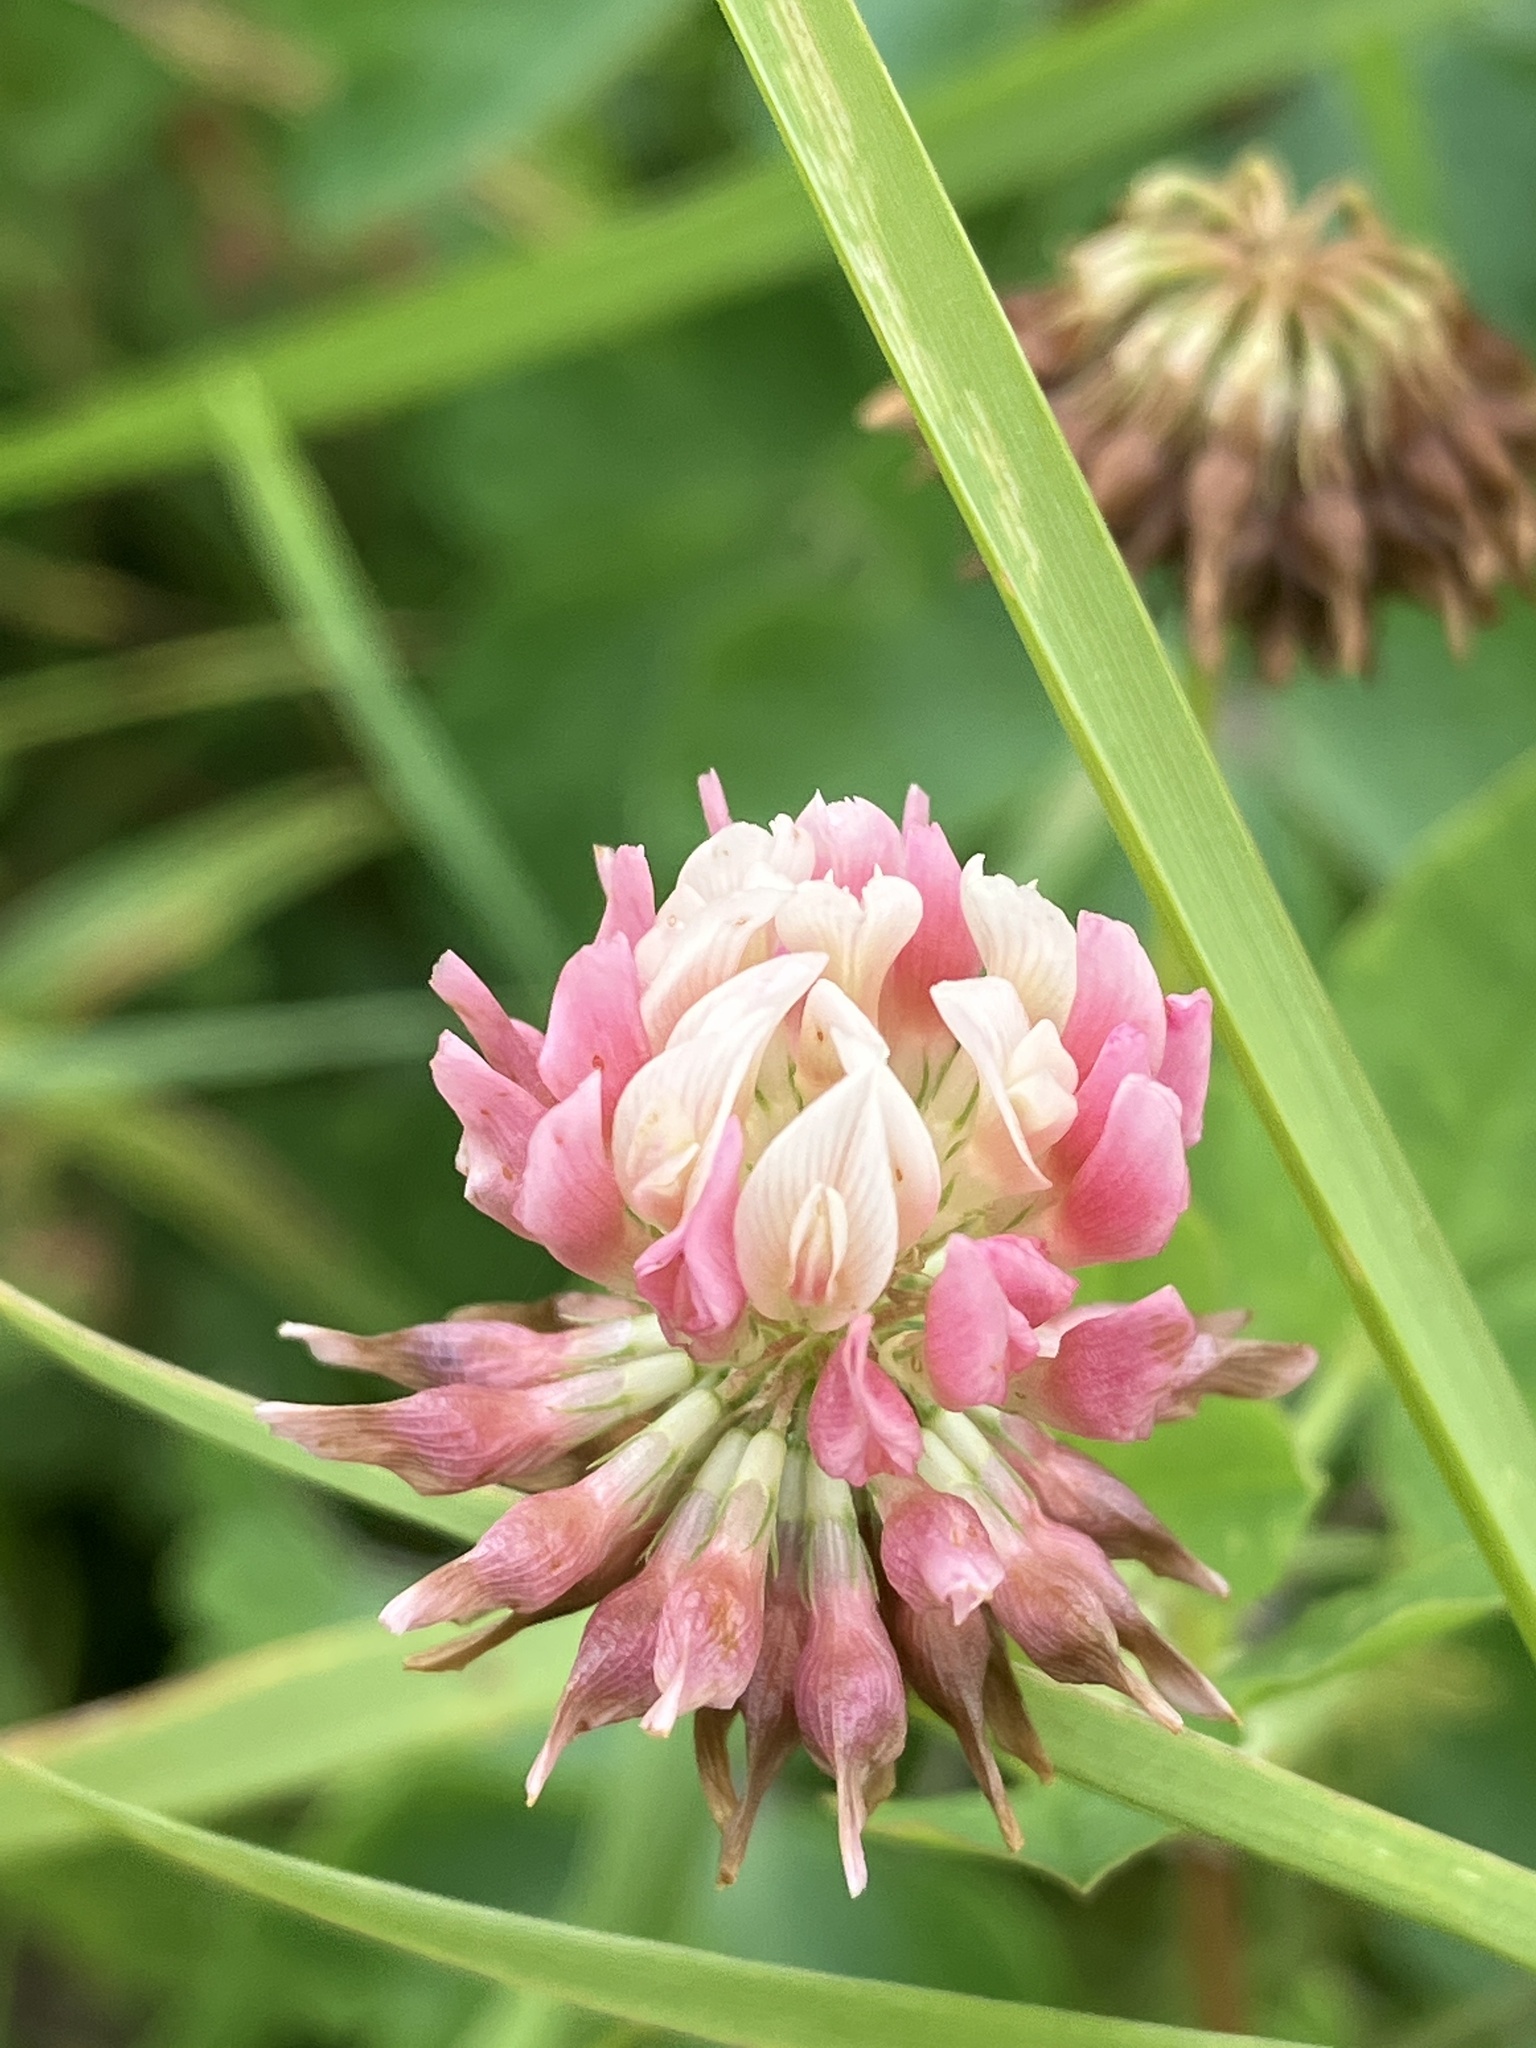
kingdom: Plantae
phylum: Tracheophyta
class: Magnoliopsida
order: Fabales
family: Fabaceae
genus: Trifolium
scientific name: Trifolium hybridum
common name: Alsike clover
